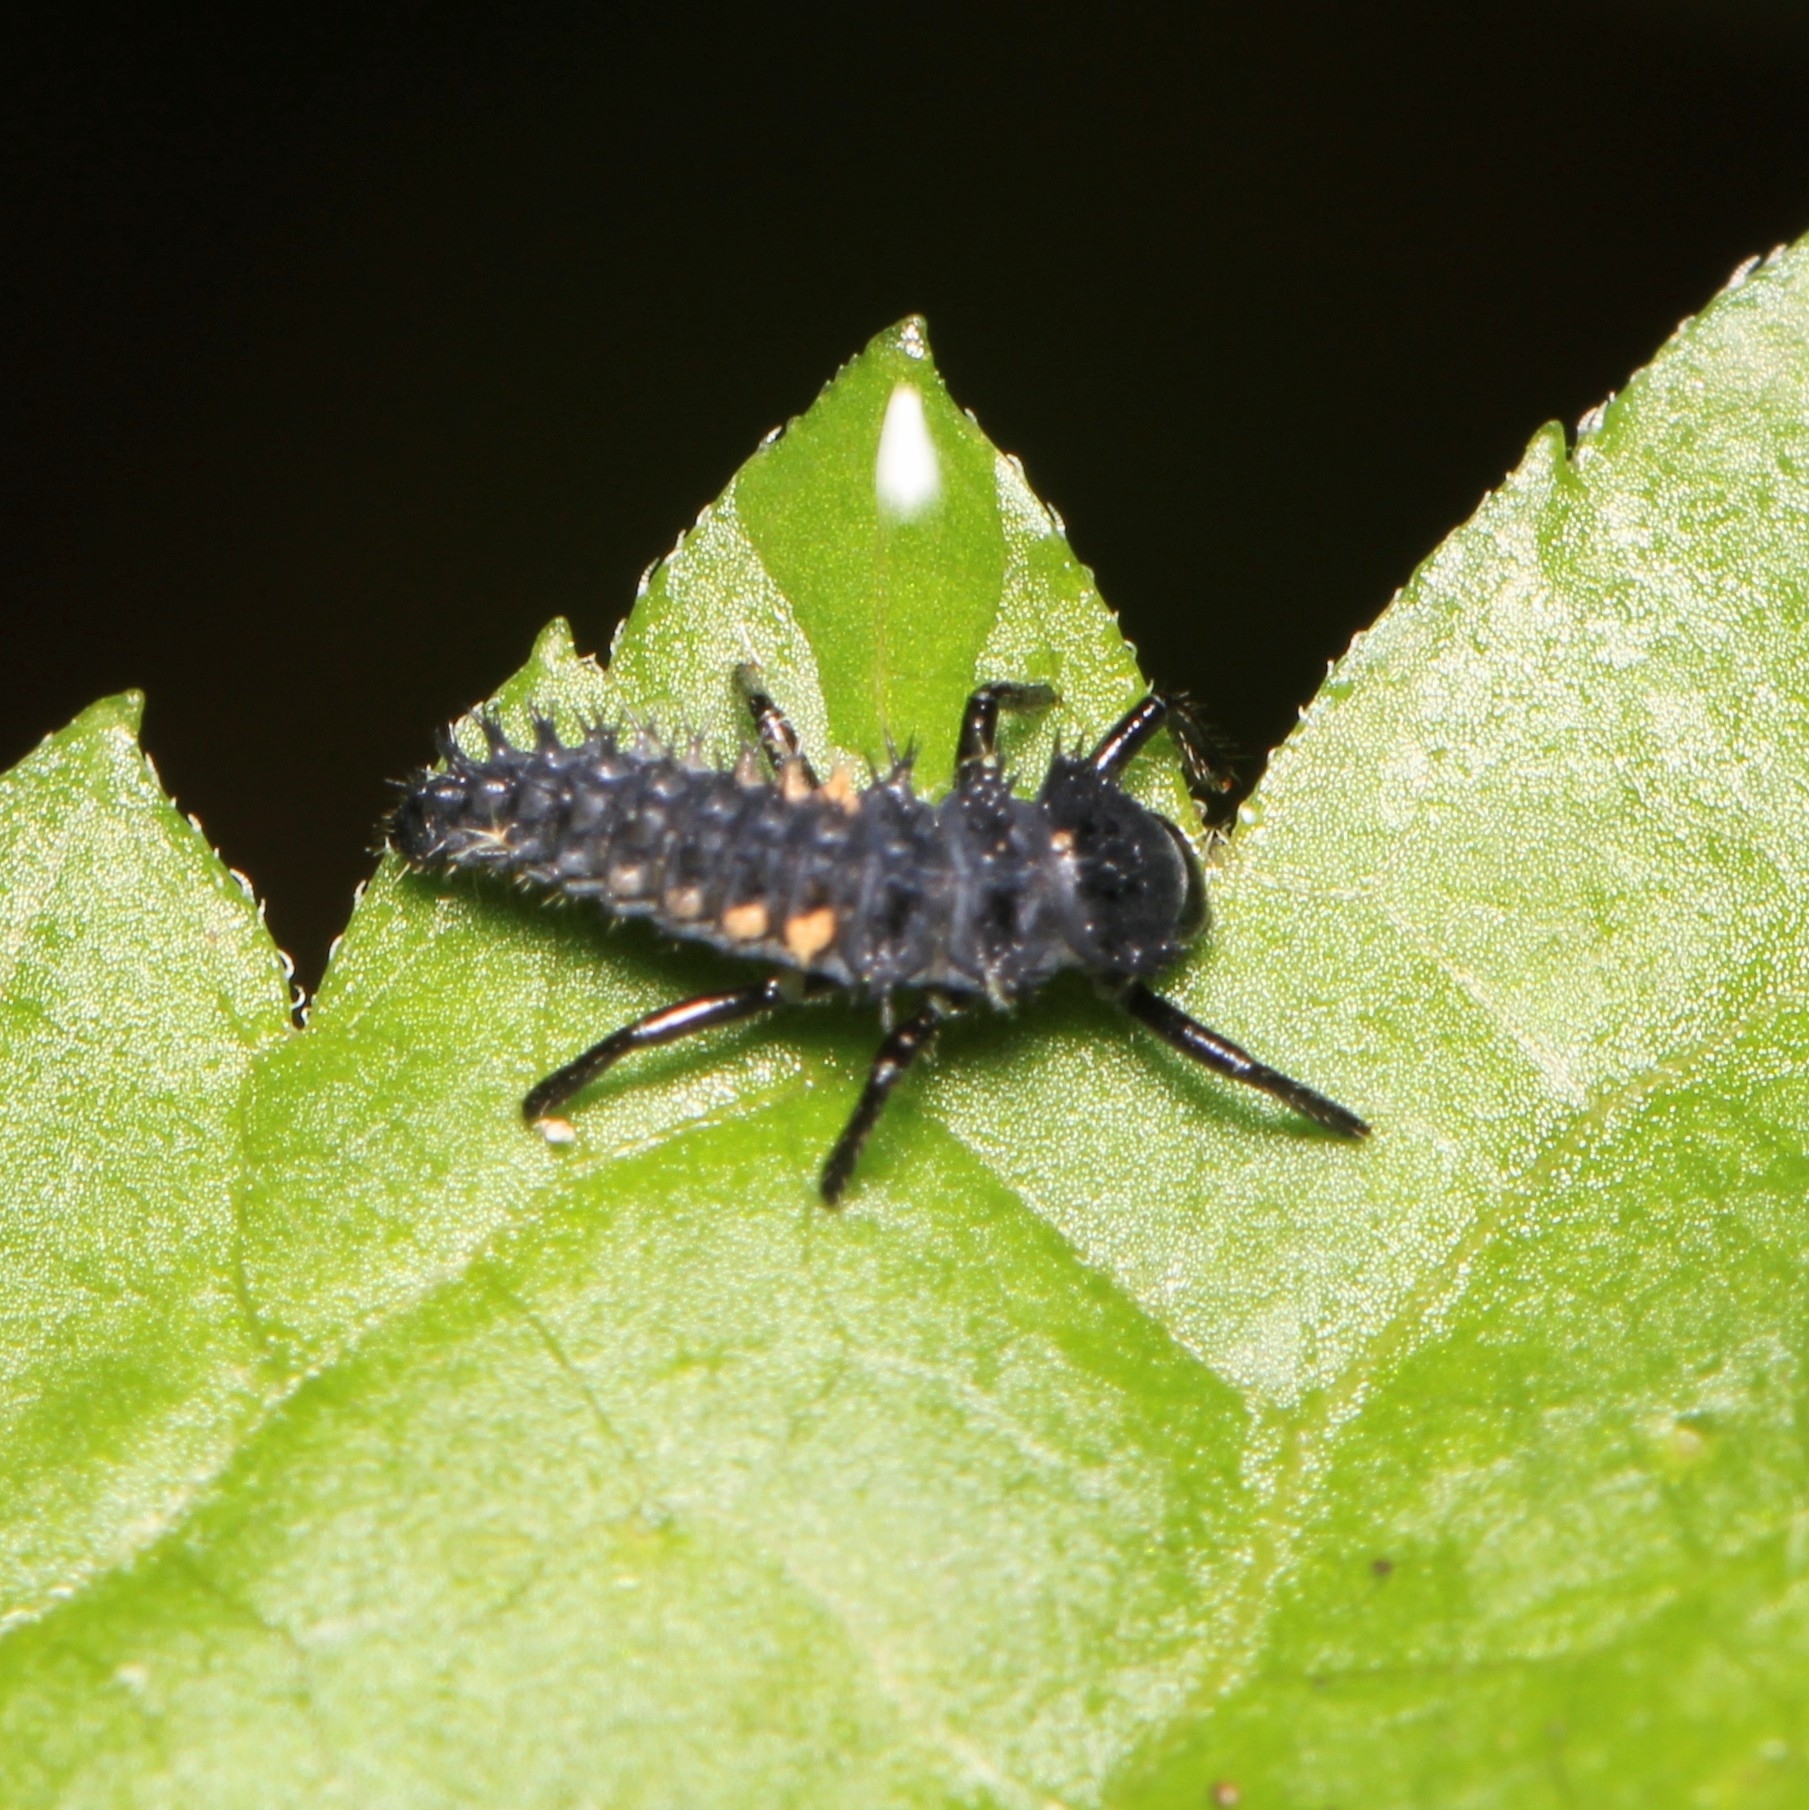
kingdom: Animalia
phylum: Arthropoda
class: Insecta
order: Coleoptera
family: Coccinellidae
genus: Harmonia
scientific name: Harmonia axyridis
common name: Harlequin ladybird
